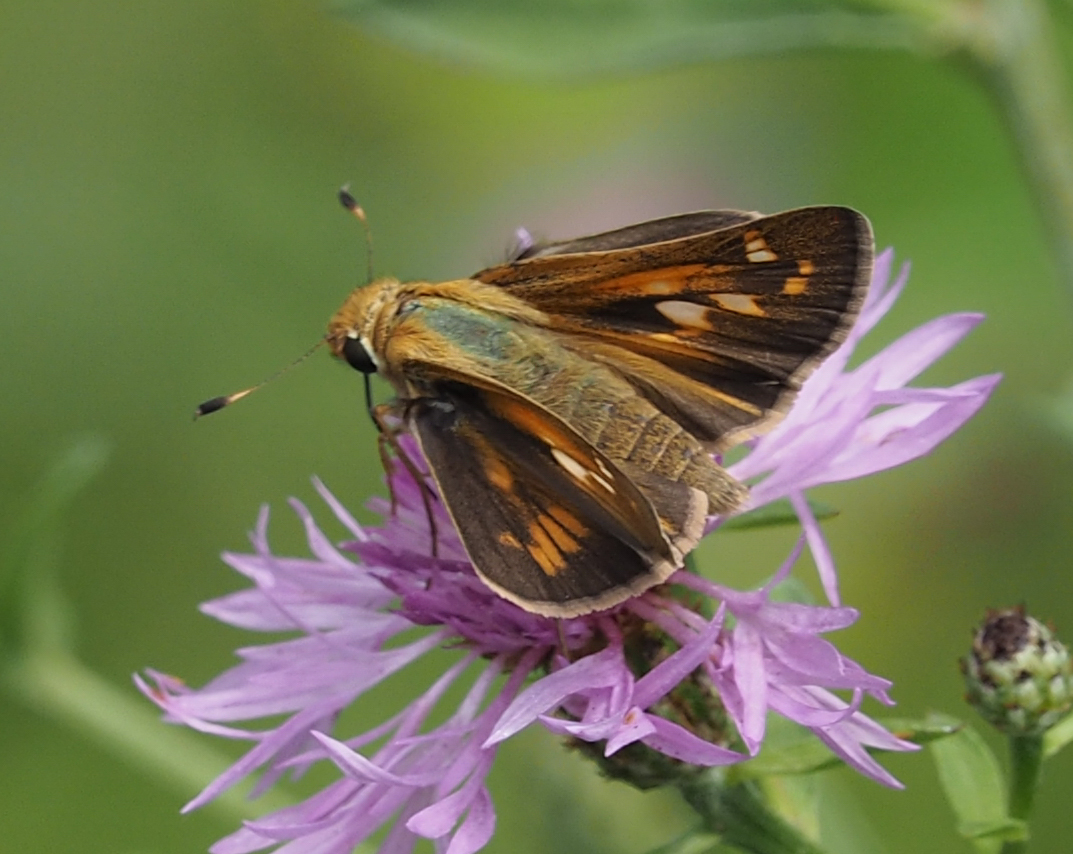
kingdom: Animalia
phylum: Arthropoda
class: Insecta
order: Lepidoptera
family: Hesperiidae
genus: Atalopedes
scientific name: Atalopedes
